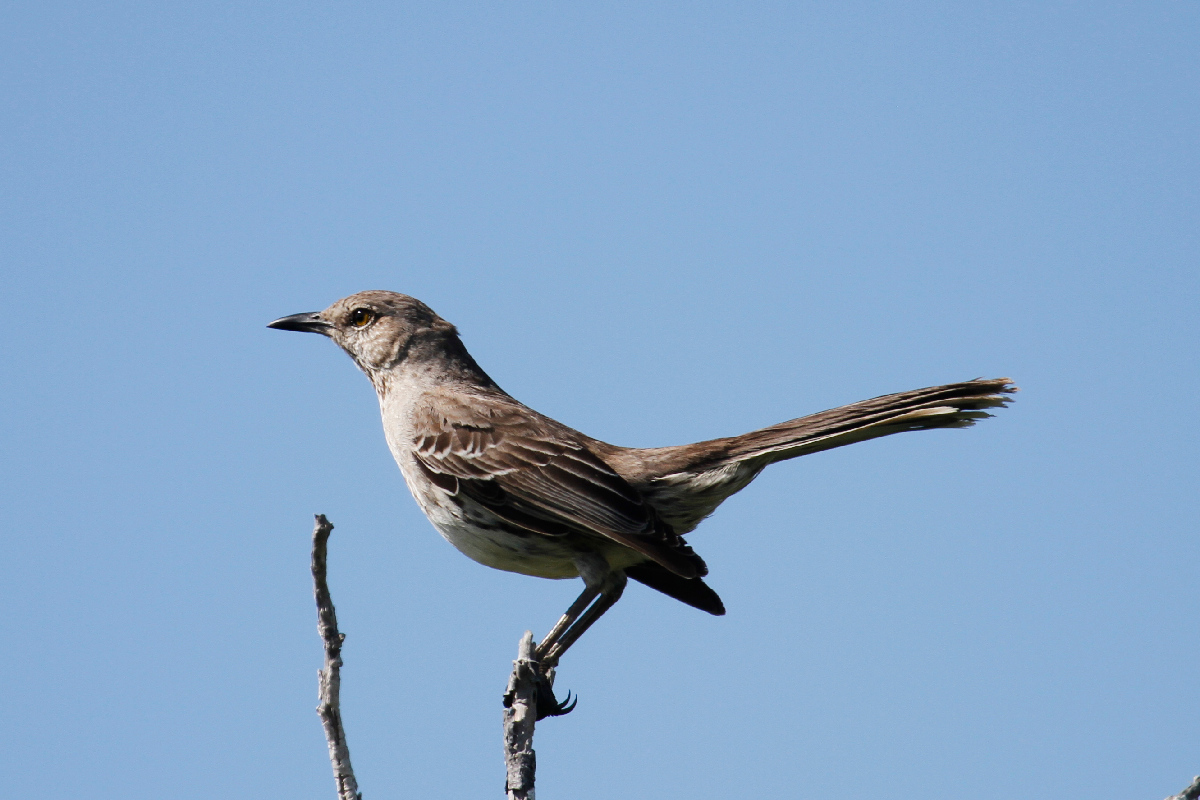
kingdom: Animalia
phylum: Chordata
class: Aves
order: Passeriformes
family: Mimidae
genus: Mimus
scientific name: Mimus gundlachii
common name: Bahama mockingbird
